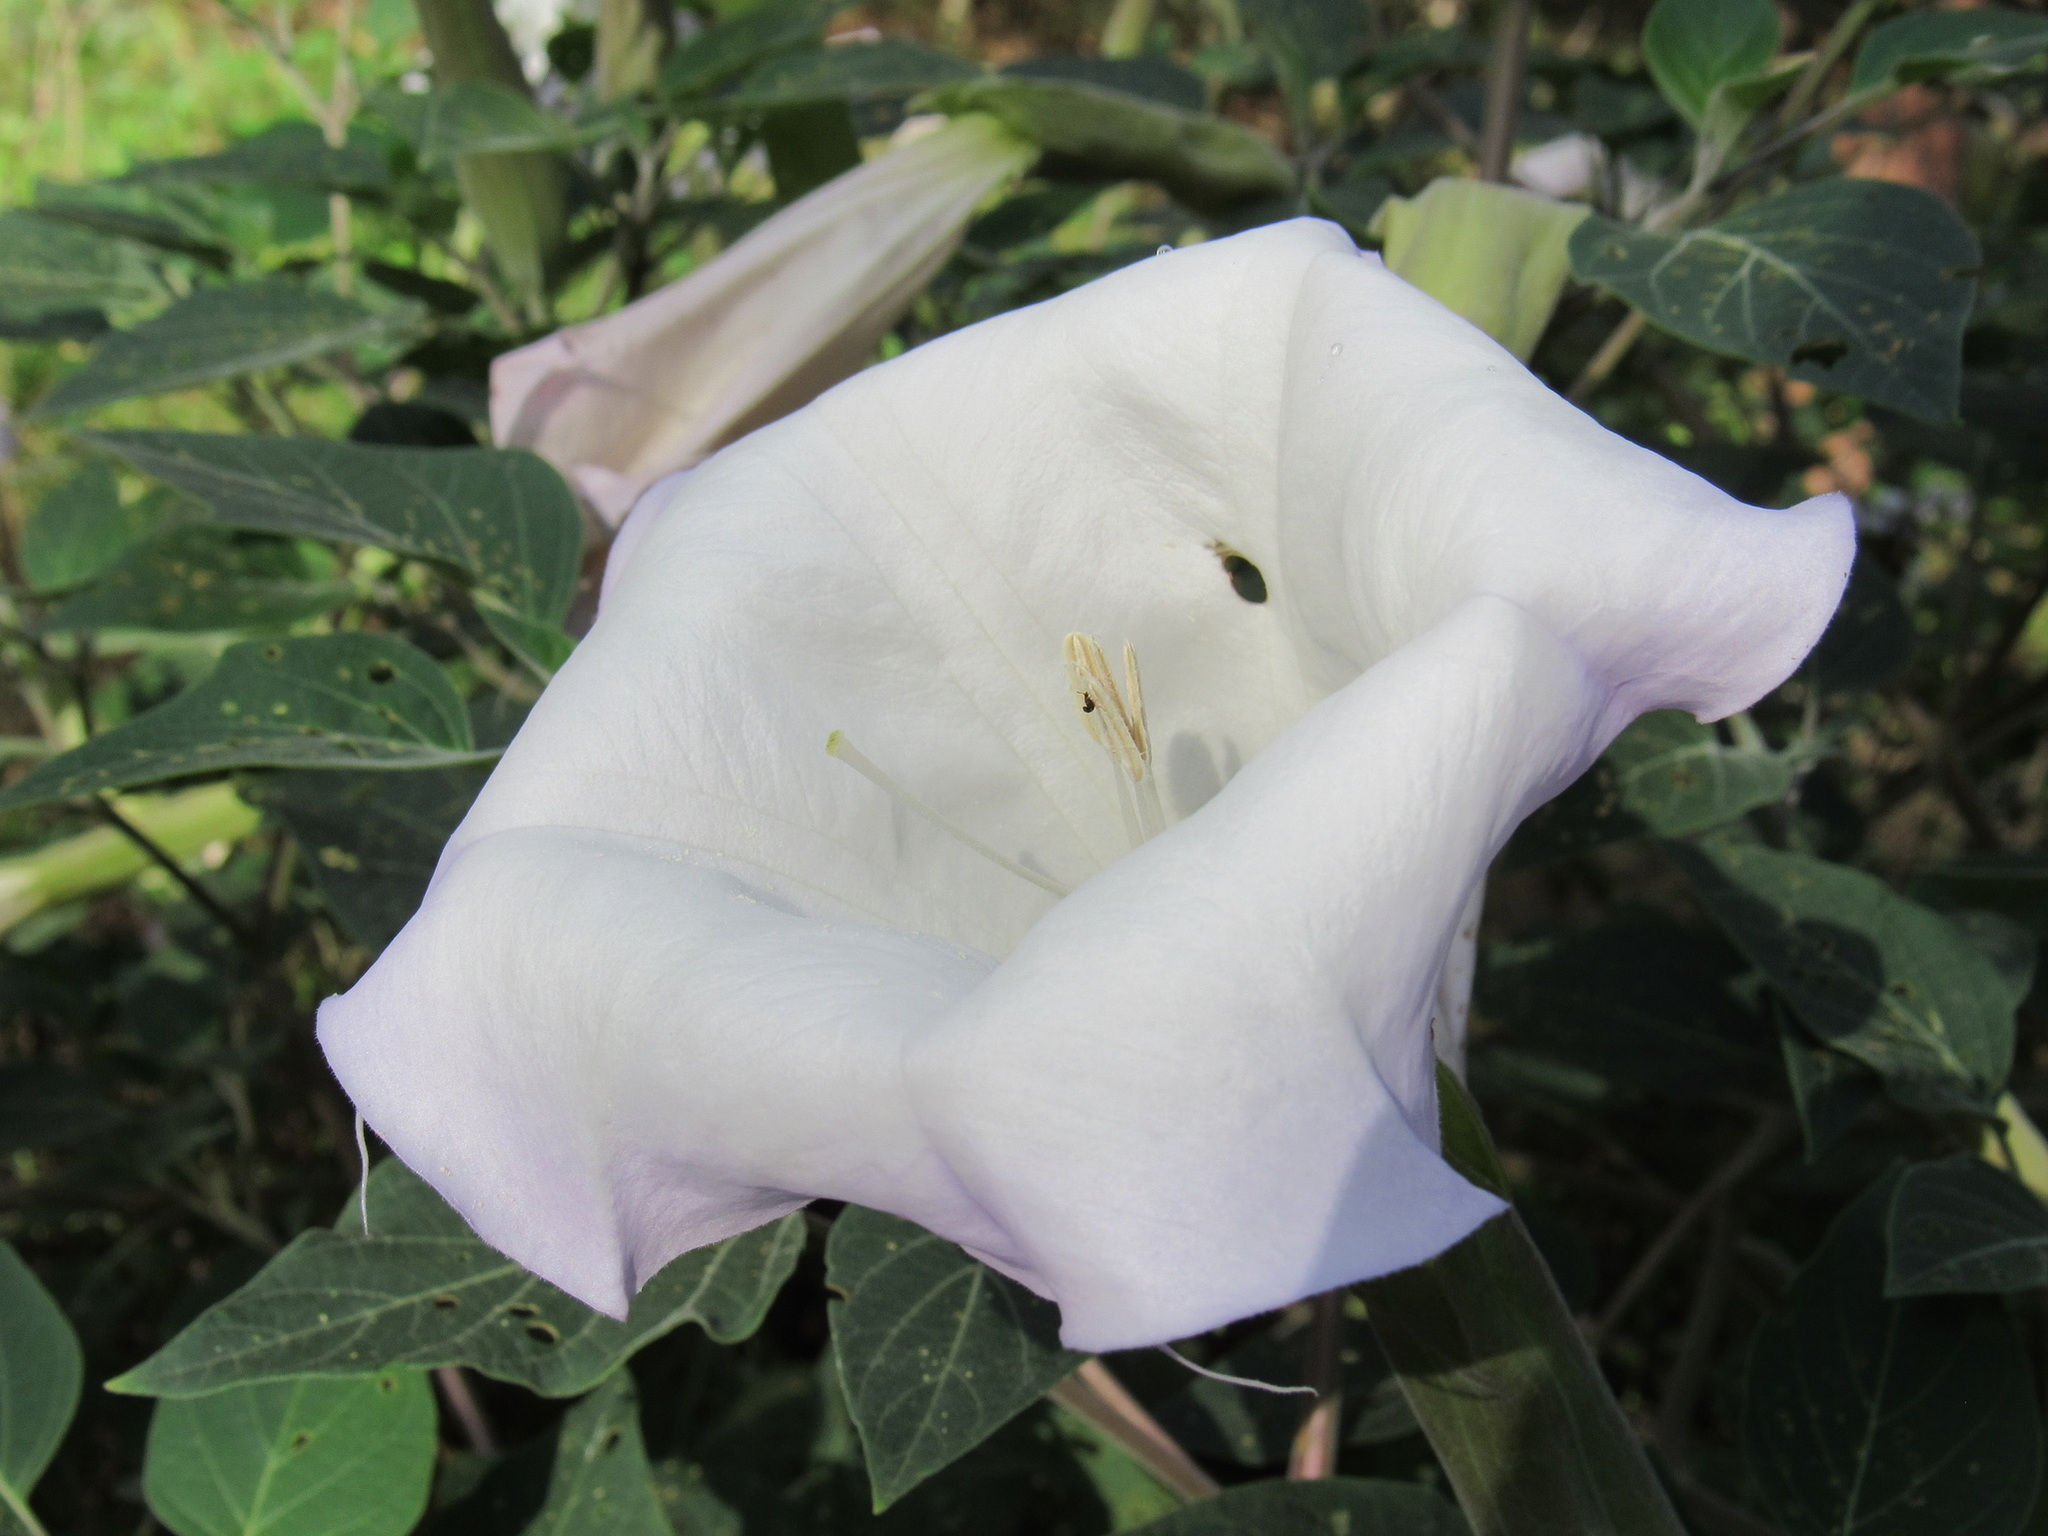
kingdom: Plantae
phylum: Tracheophyta
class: Magnoliopsida
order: Solanales
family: Solanaceae
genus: Datura
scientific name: Datura wrightii
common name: Sacred thorn-apple
